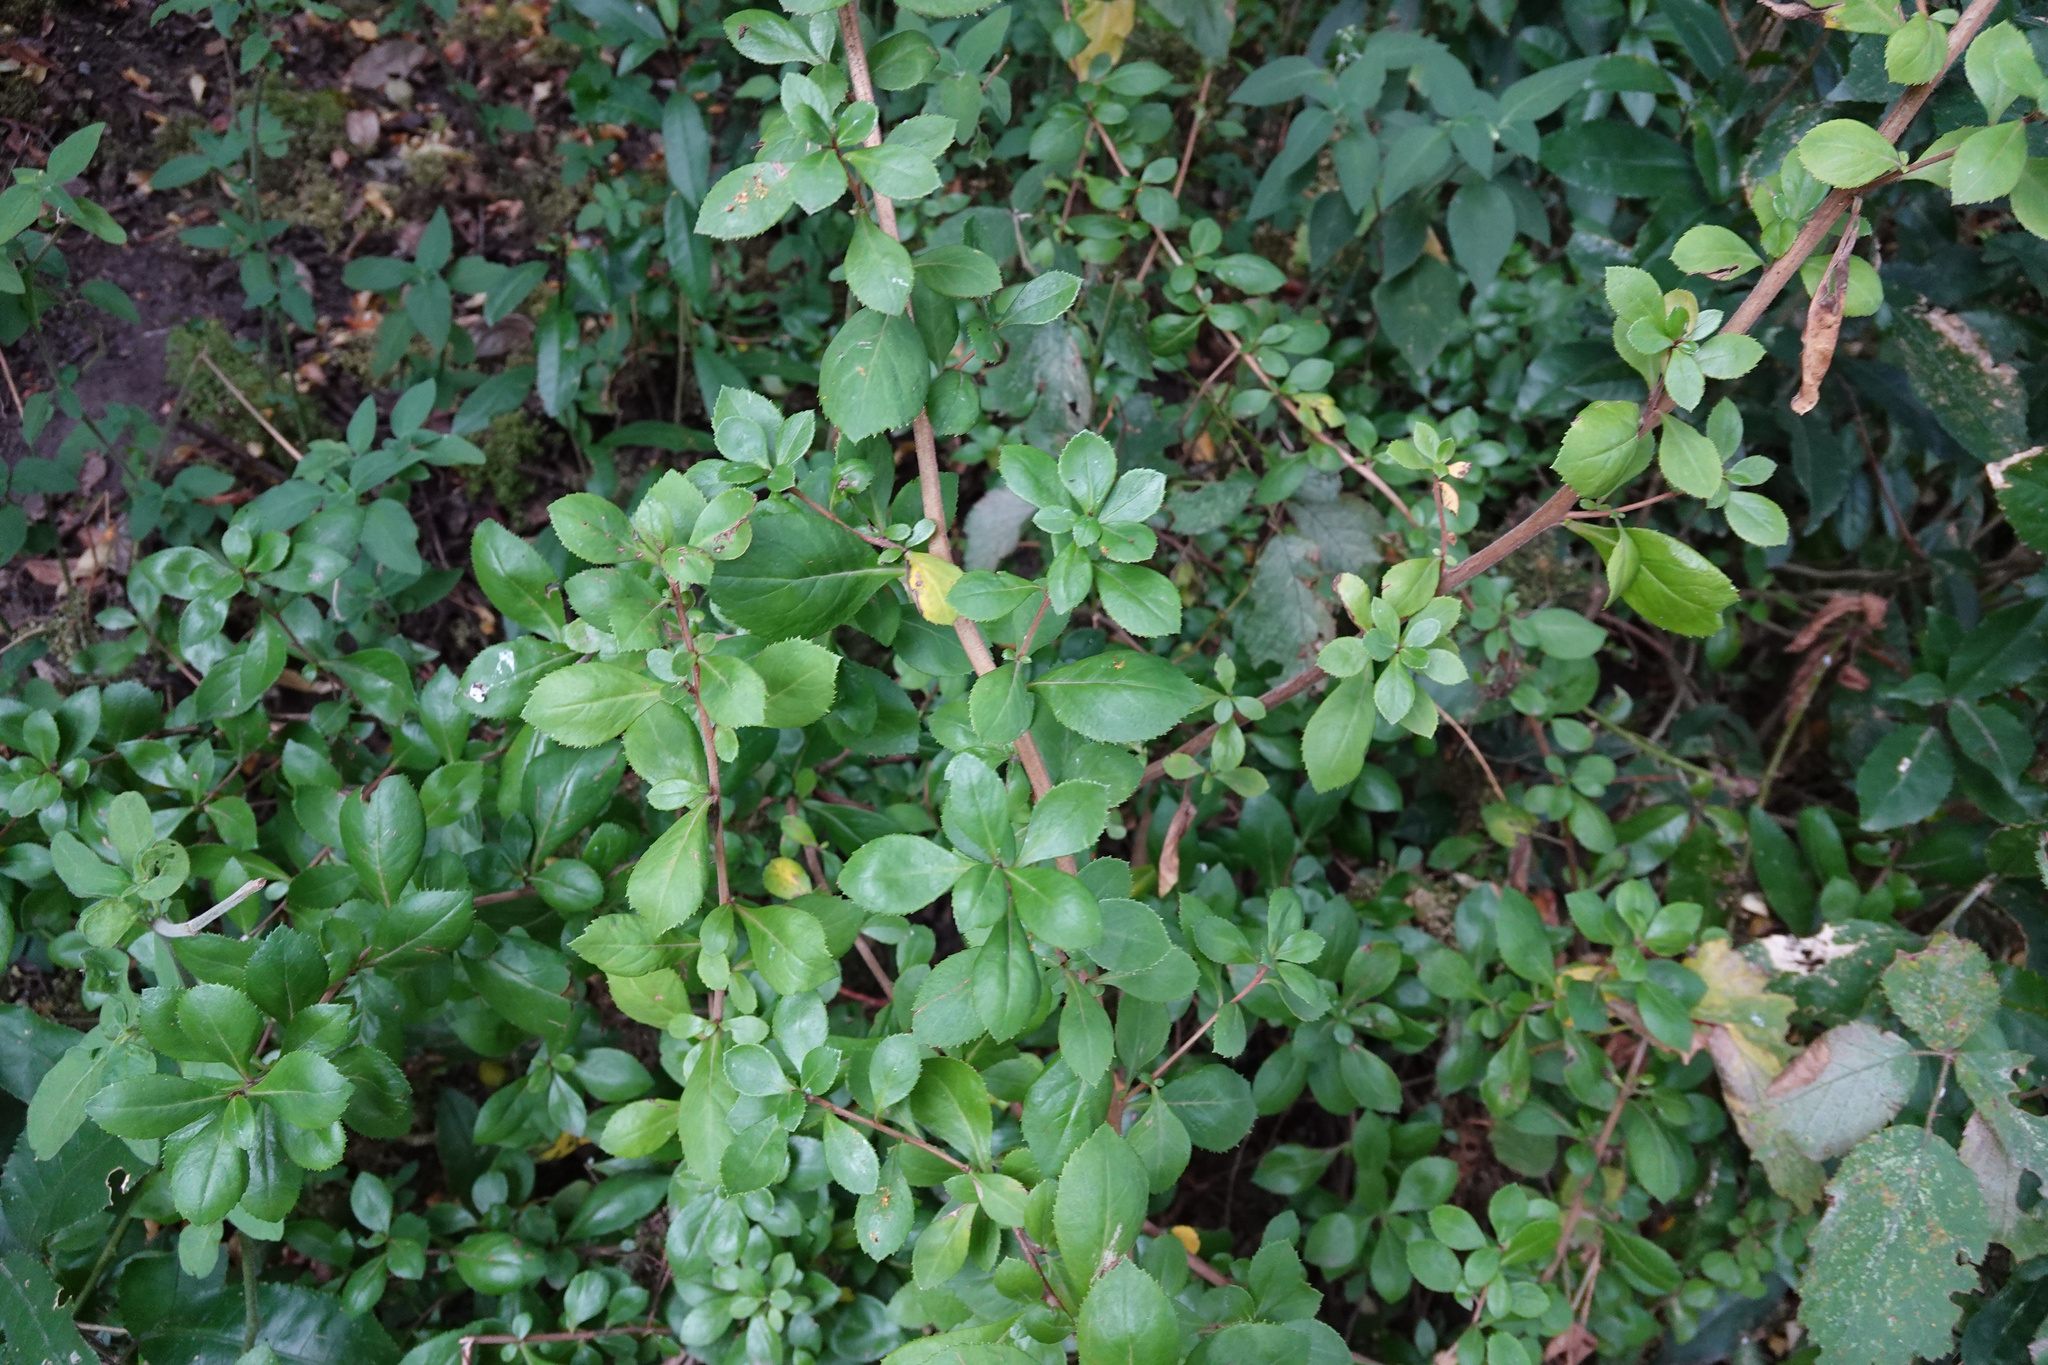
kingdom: Plantae
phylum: Tracheophyta
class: Magnoliopsida
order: Escalloniales
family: Escalloniaceae
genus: Escallonia
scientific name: Escallonia rubra
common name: Redclaws
